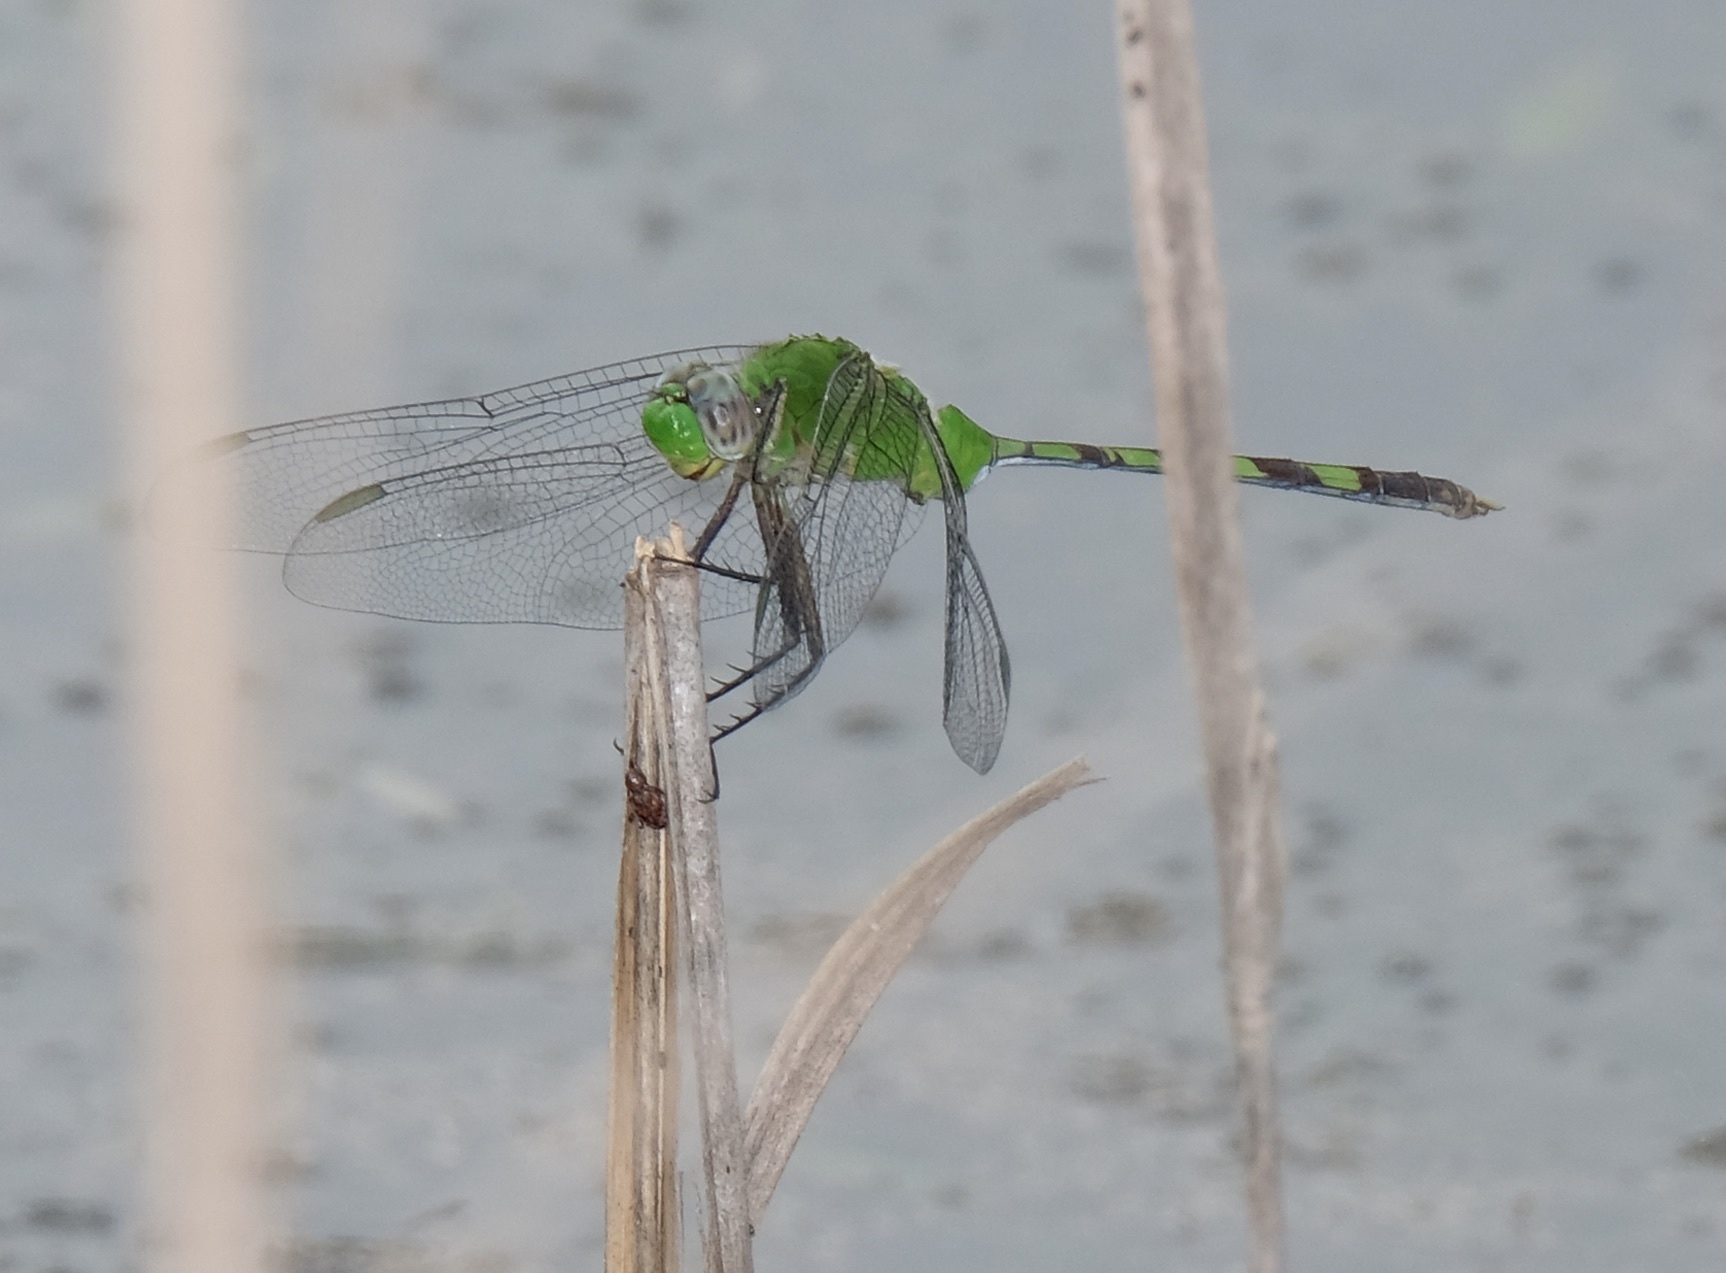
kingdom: Animalia
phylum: Arthropoda
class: Insecta
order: Odonata
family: Libellulidae
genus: Erythemis
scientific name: Erythemis vesiculosa
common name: Great pondhawk
